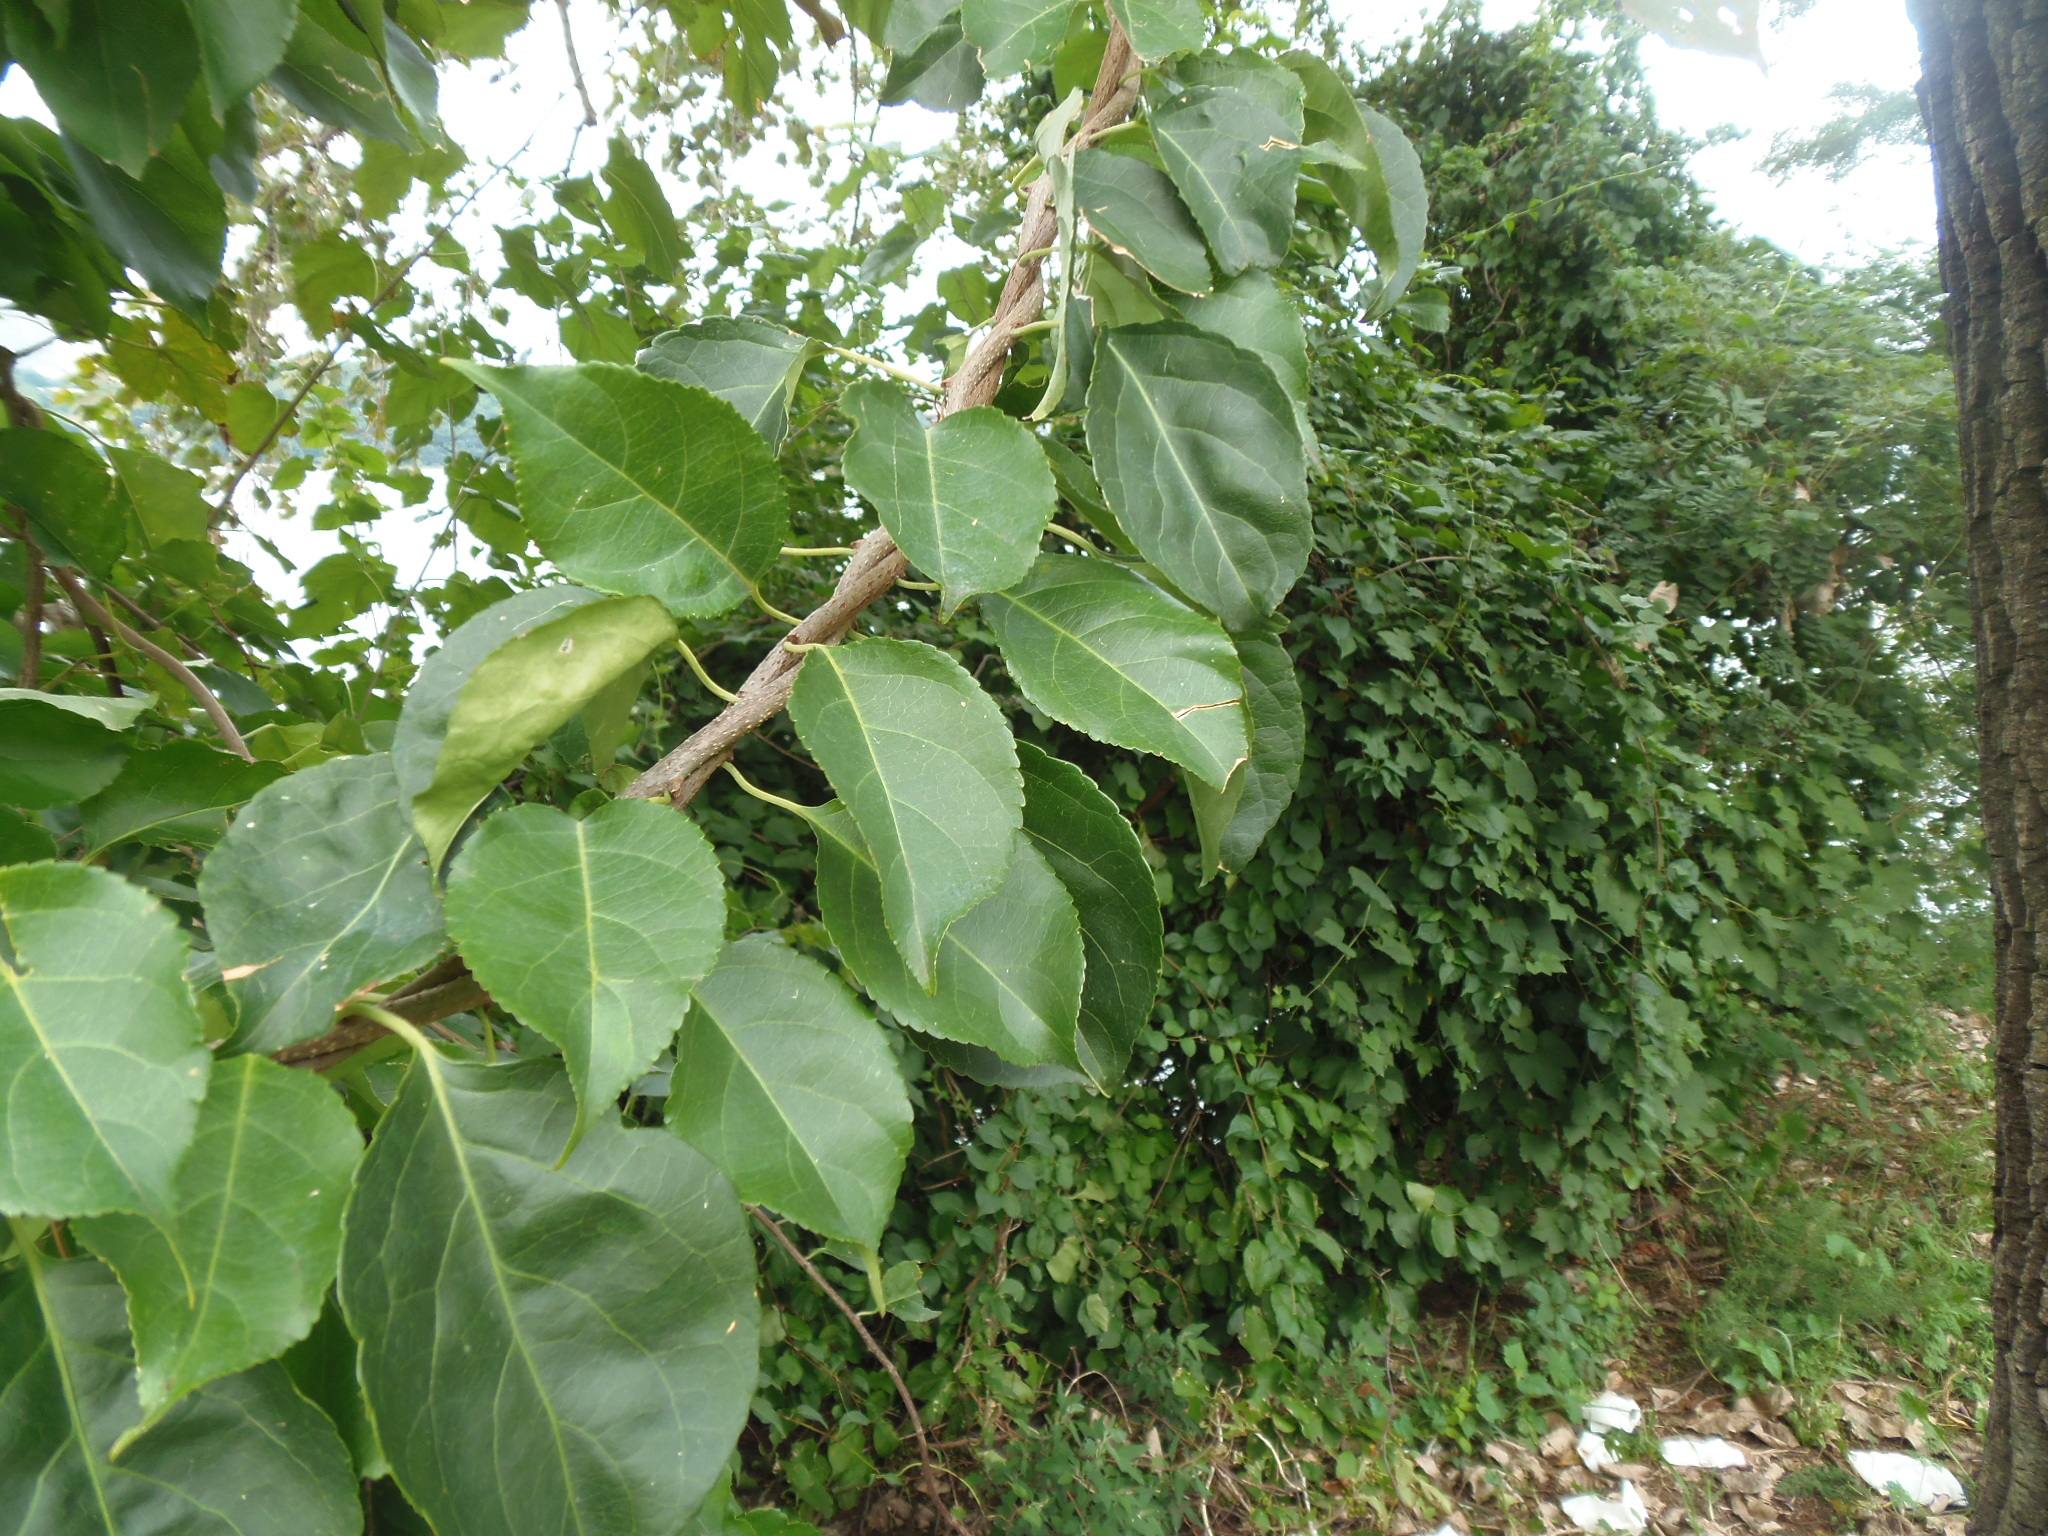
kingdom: Plantae
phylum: Tracheophyta
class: Magnoliopsida
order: Celastrales
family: Celastraceae
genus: Celastrus
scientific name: Celastrus orbiculatus
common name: Oriental bittersweet
